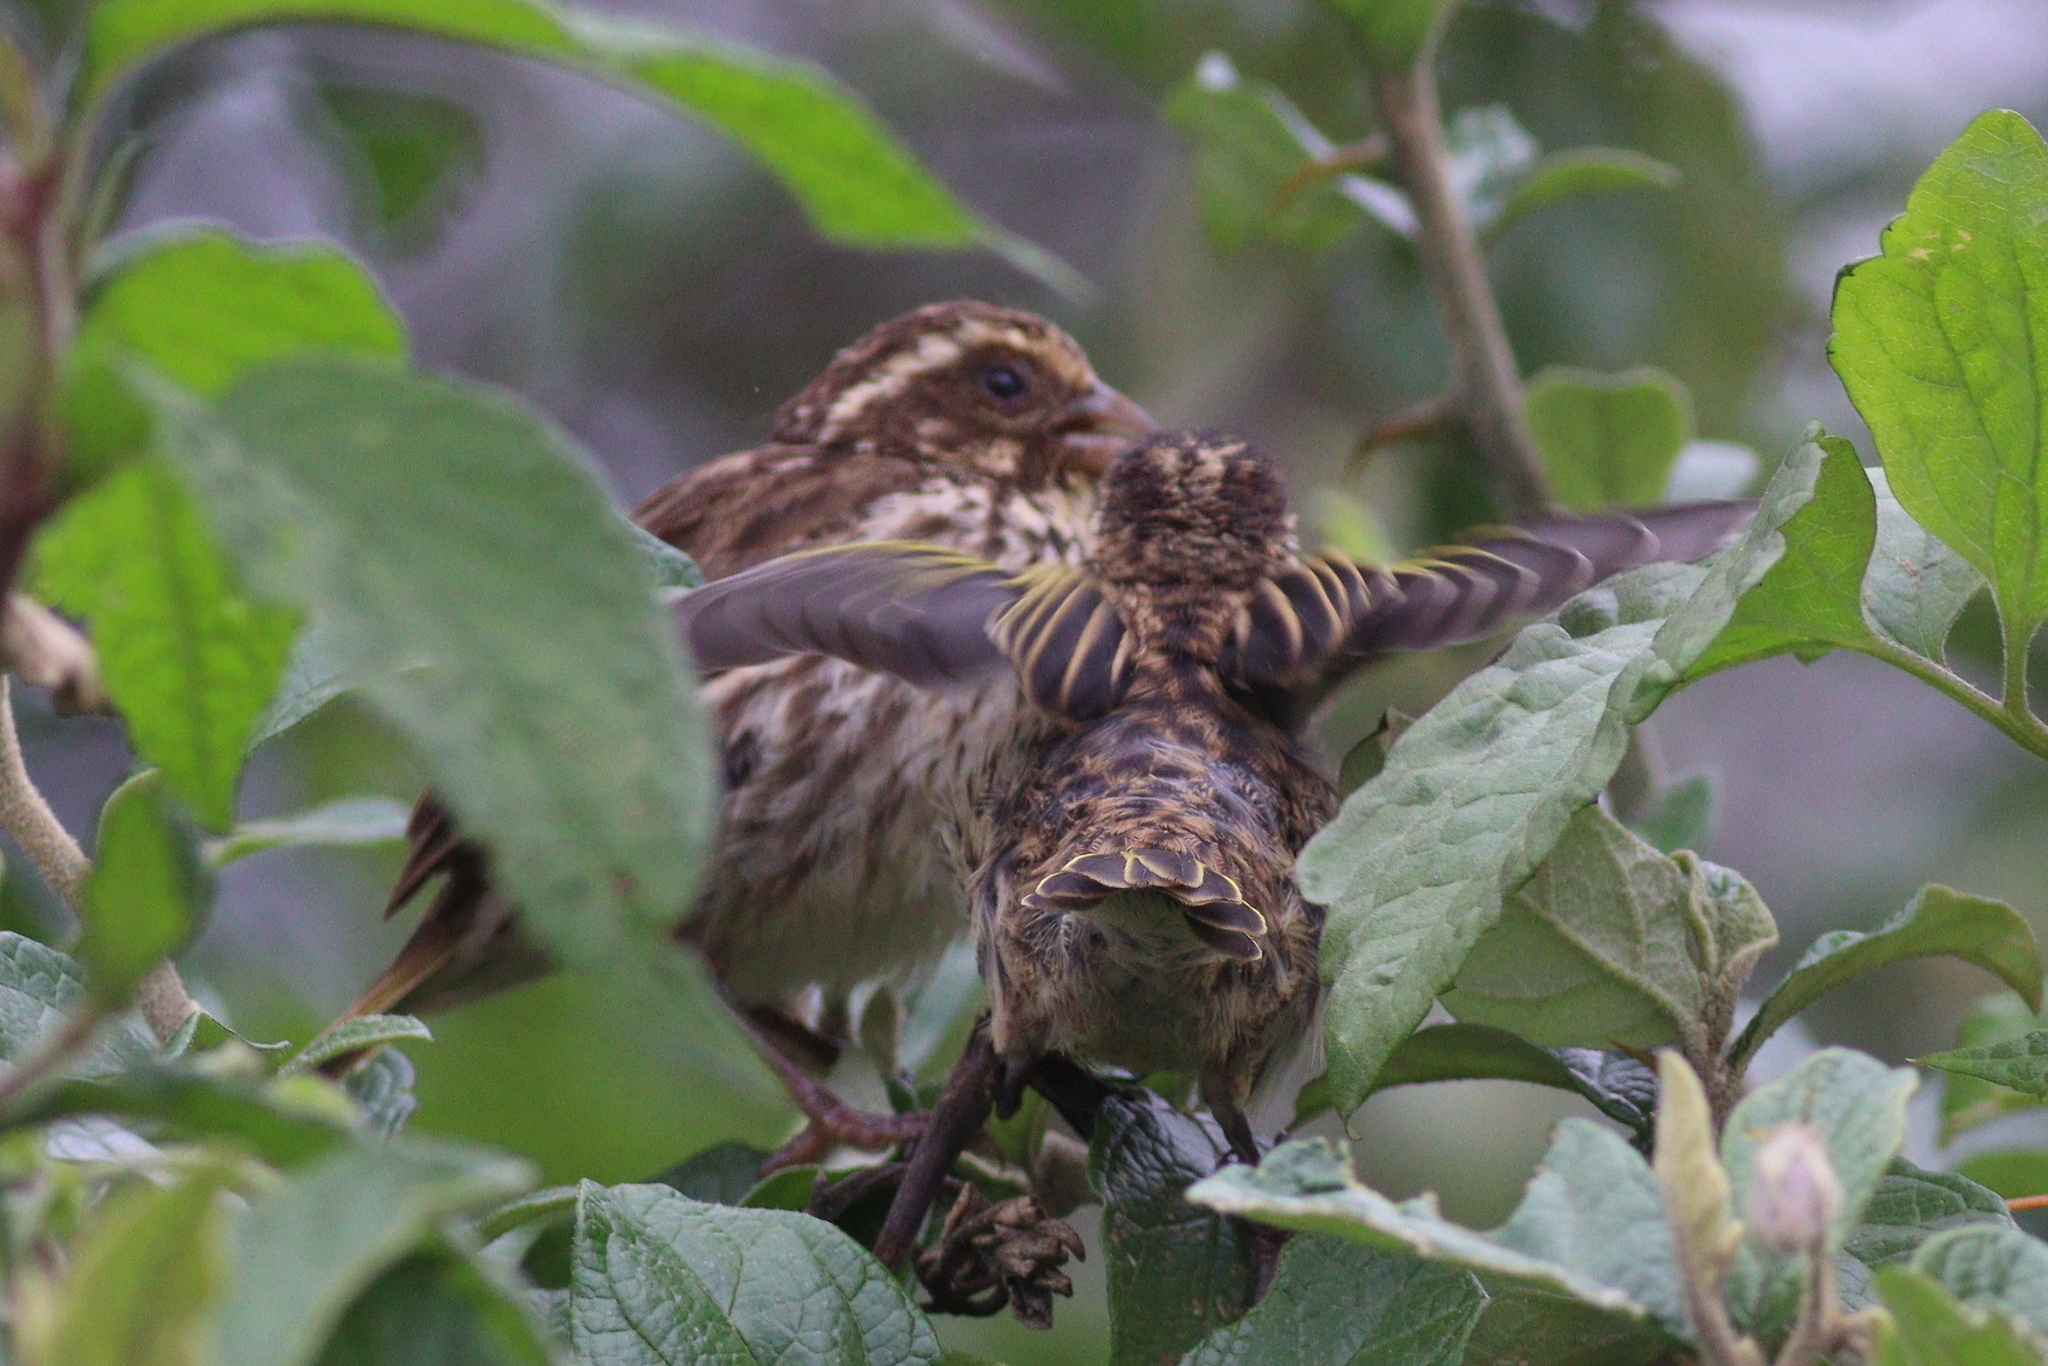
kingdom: Animalia
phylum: Chordata
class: Aves
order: Passeriformes
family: Fringillidae
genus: Crithagra
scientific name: Crithagra striolata
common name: Streaky seedeater
